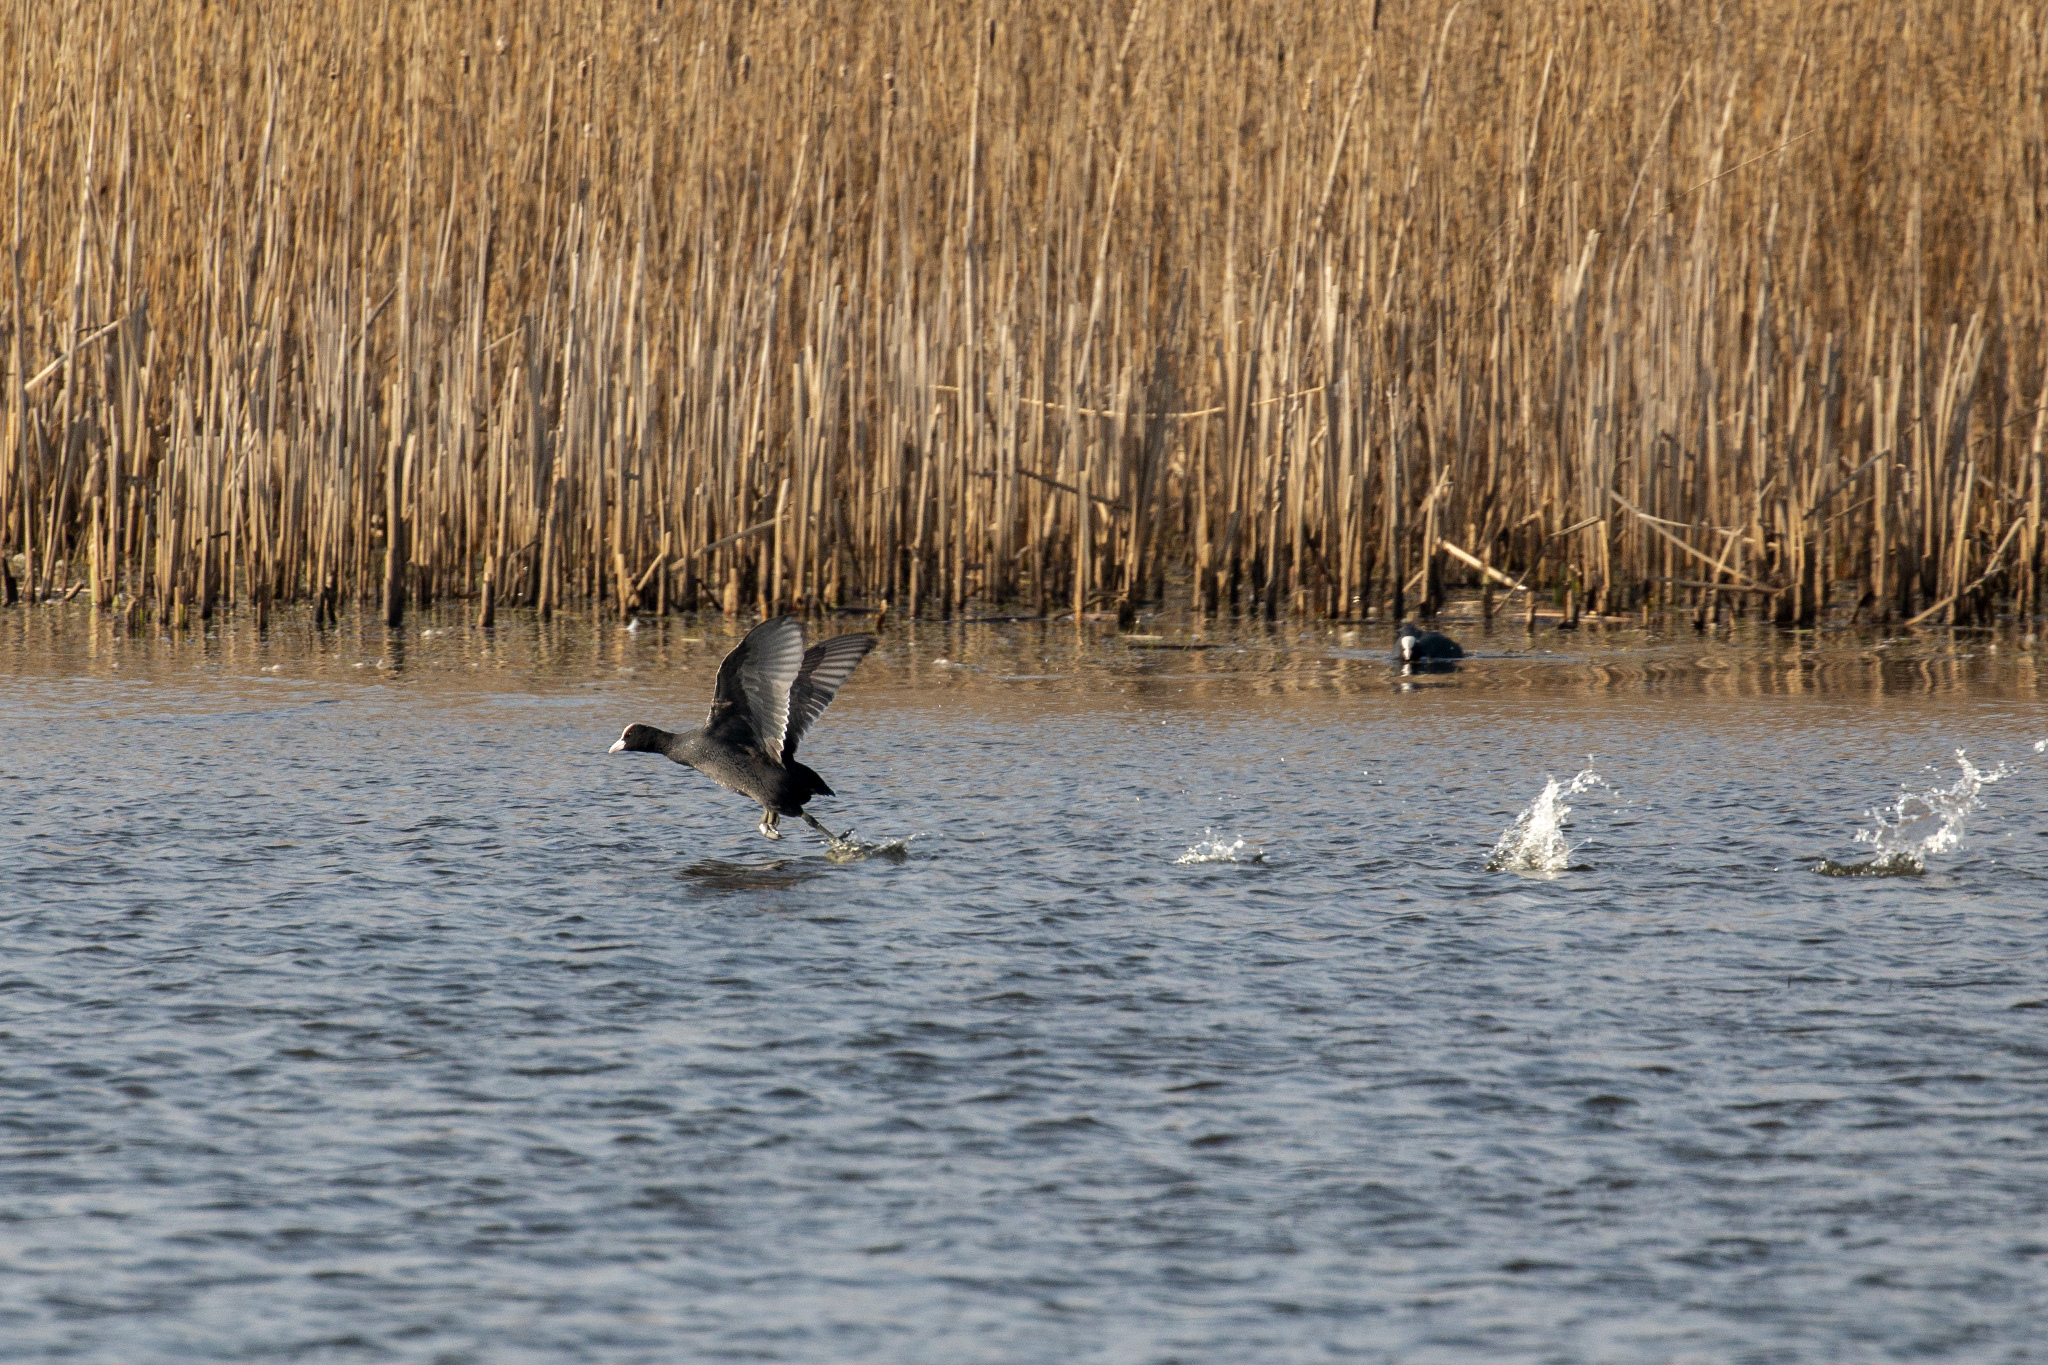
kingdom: Animalia
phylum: Chordata
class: Aves
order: Gruiformes
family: Rallidae
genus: Fulica
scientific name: Fulica atra
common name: Eurasian coot
